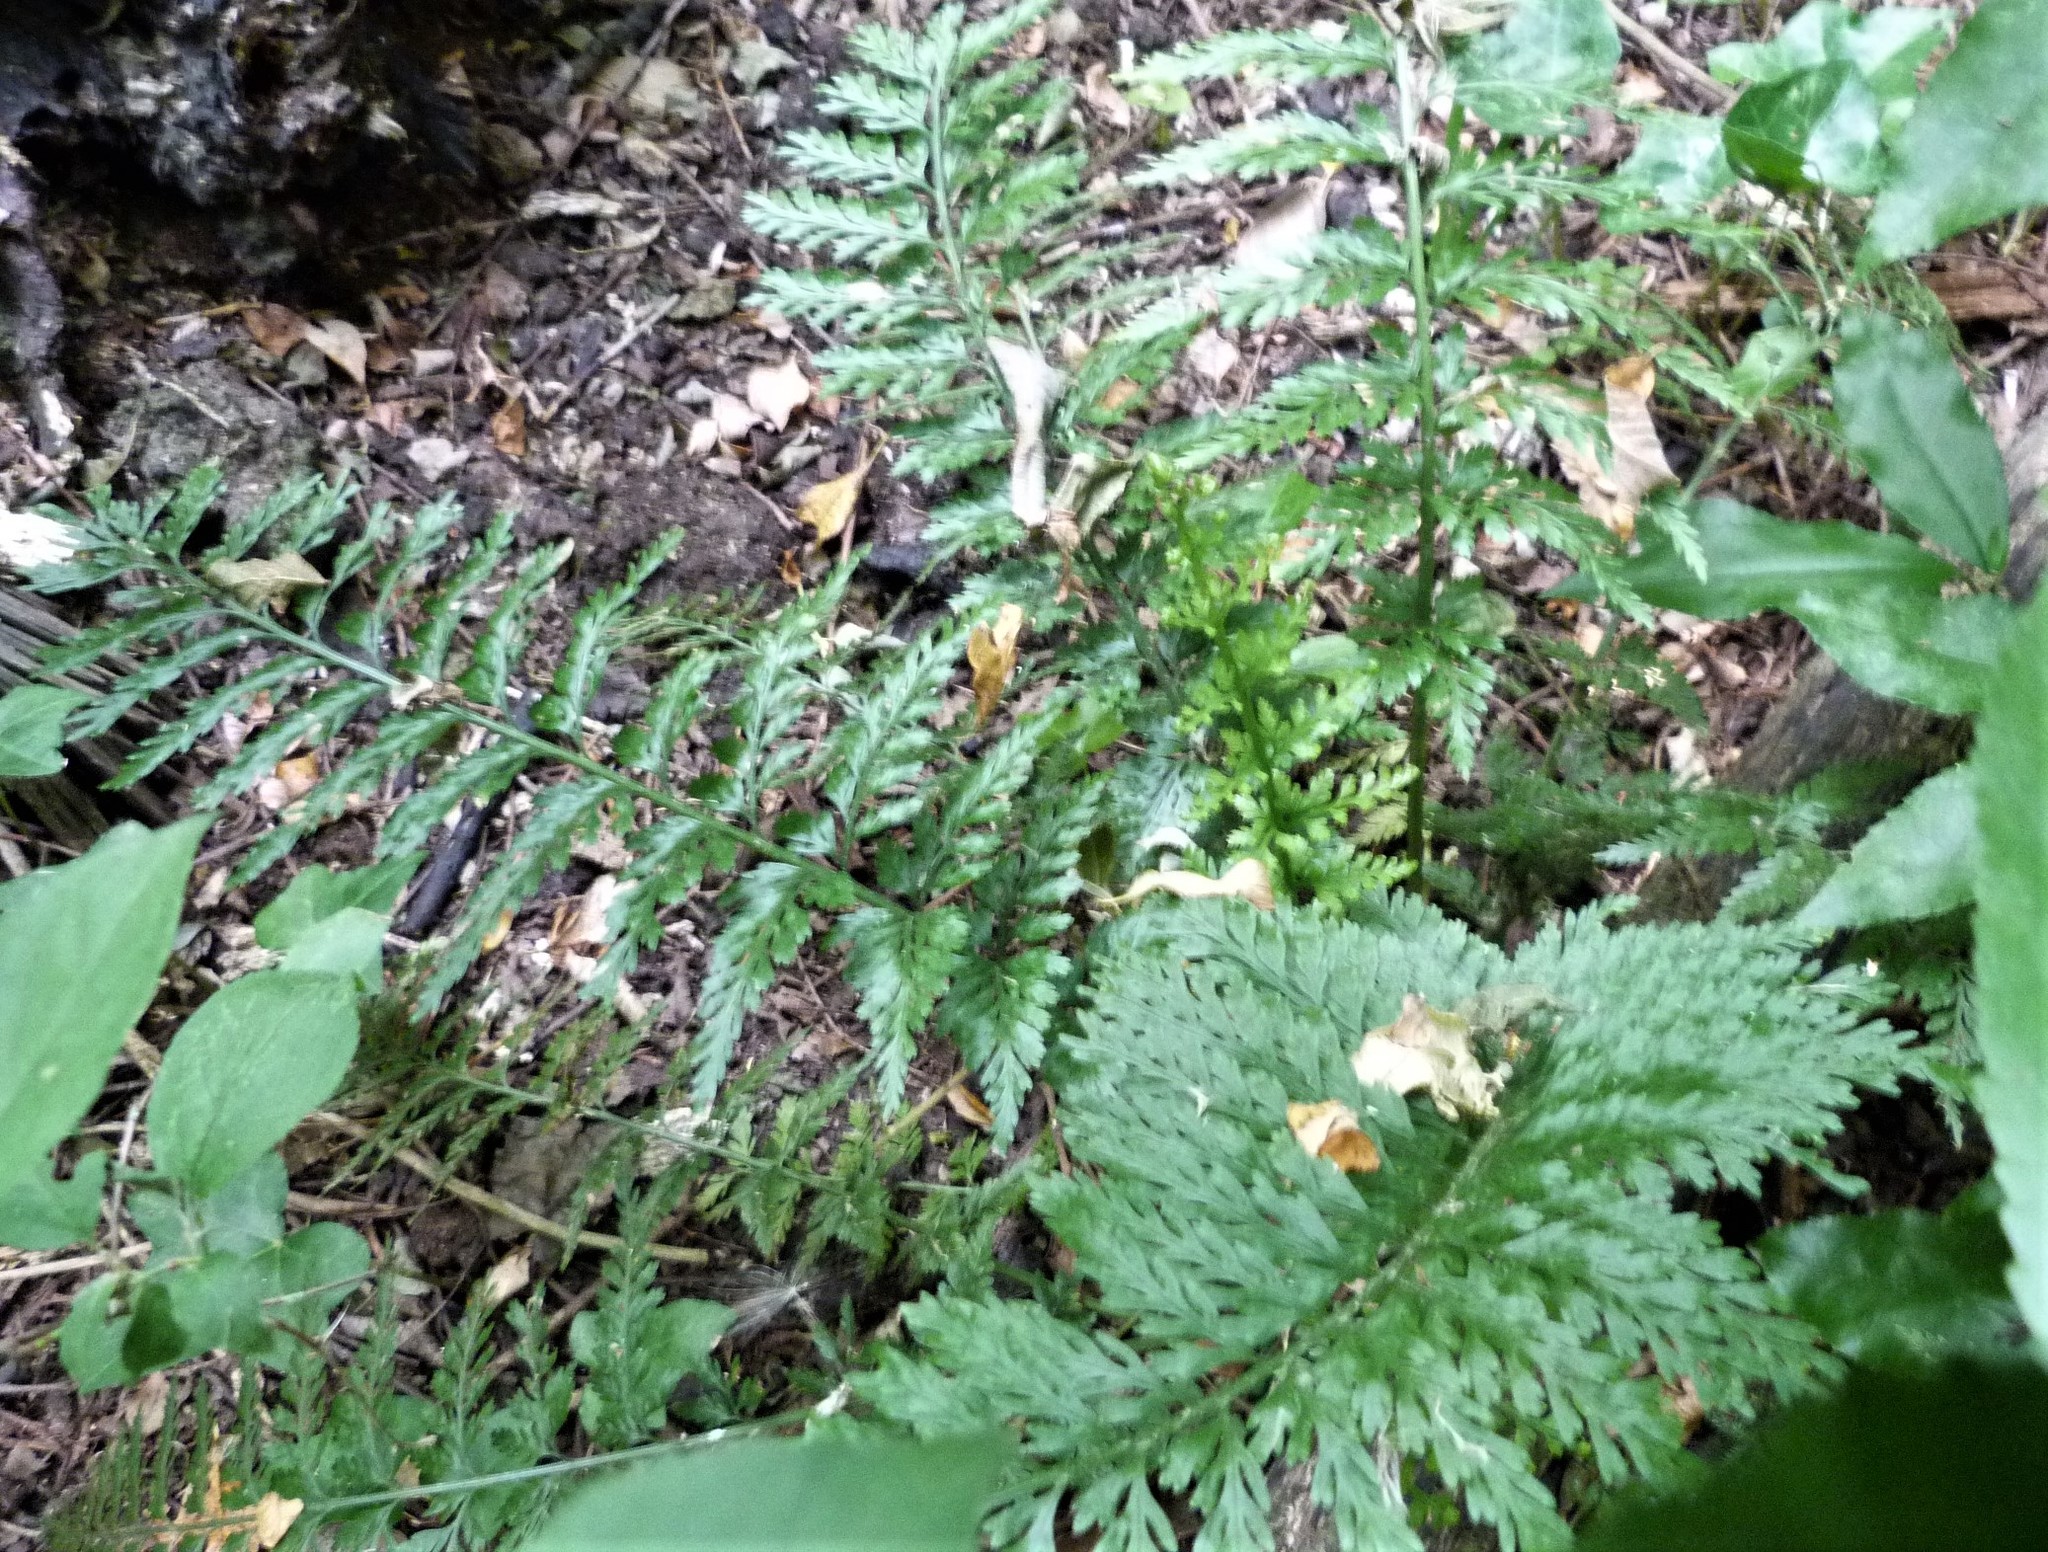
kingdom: Plantae
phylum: Tracheophyta
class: Polypodiopsida
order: Polypodiales
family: Aspleniaceae
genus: Asplenium
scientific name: Asplenium
